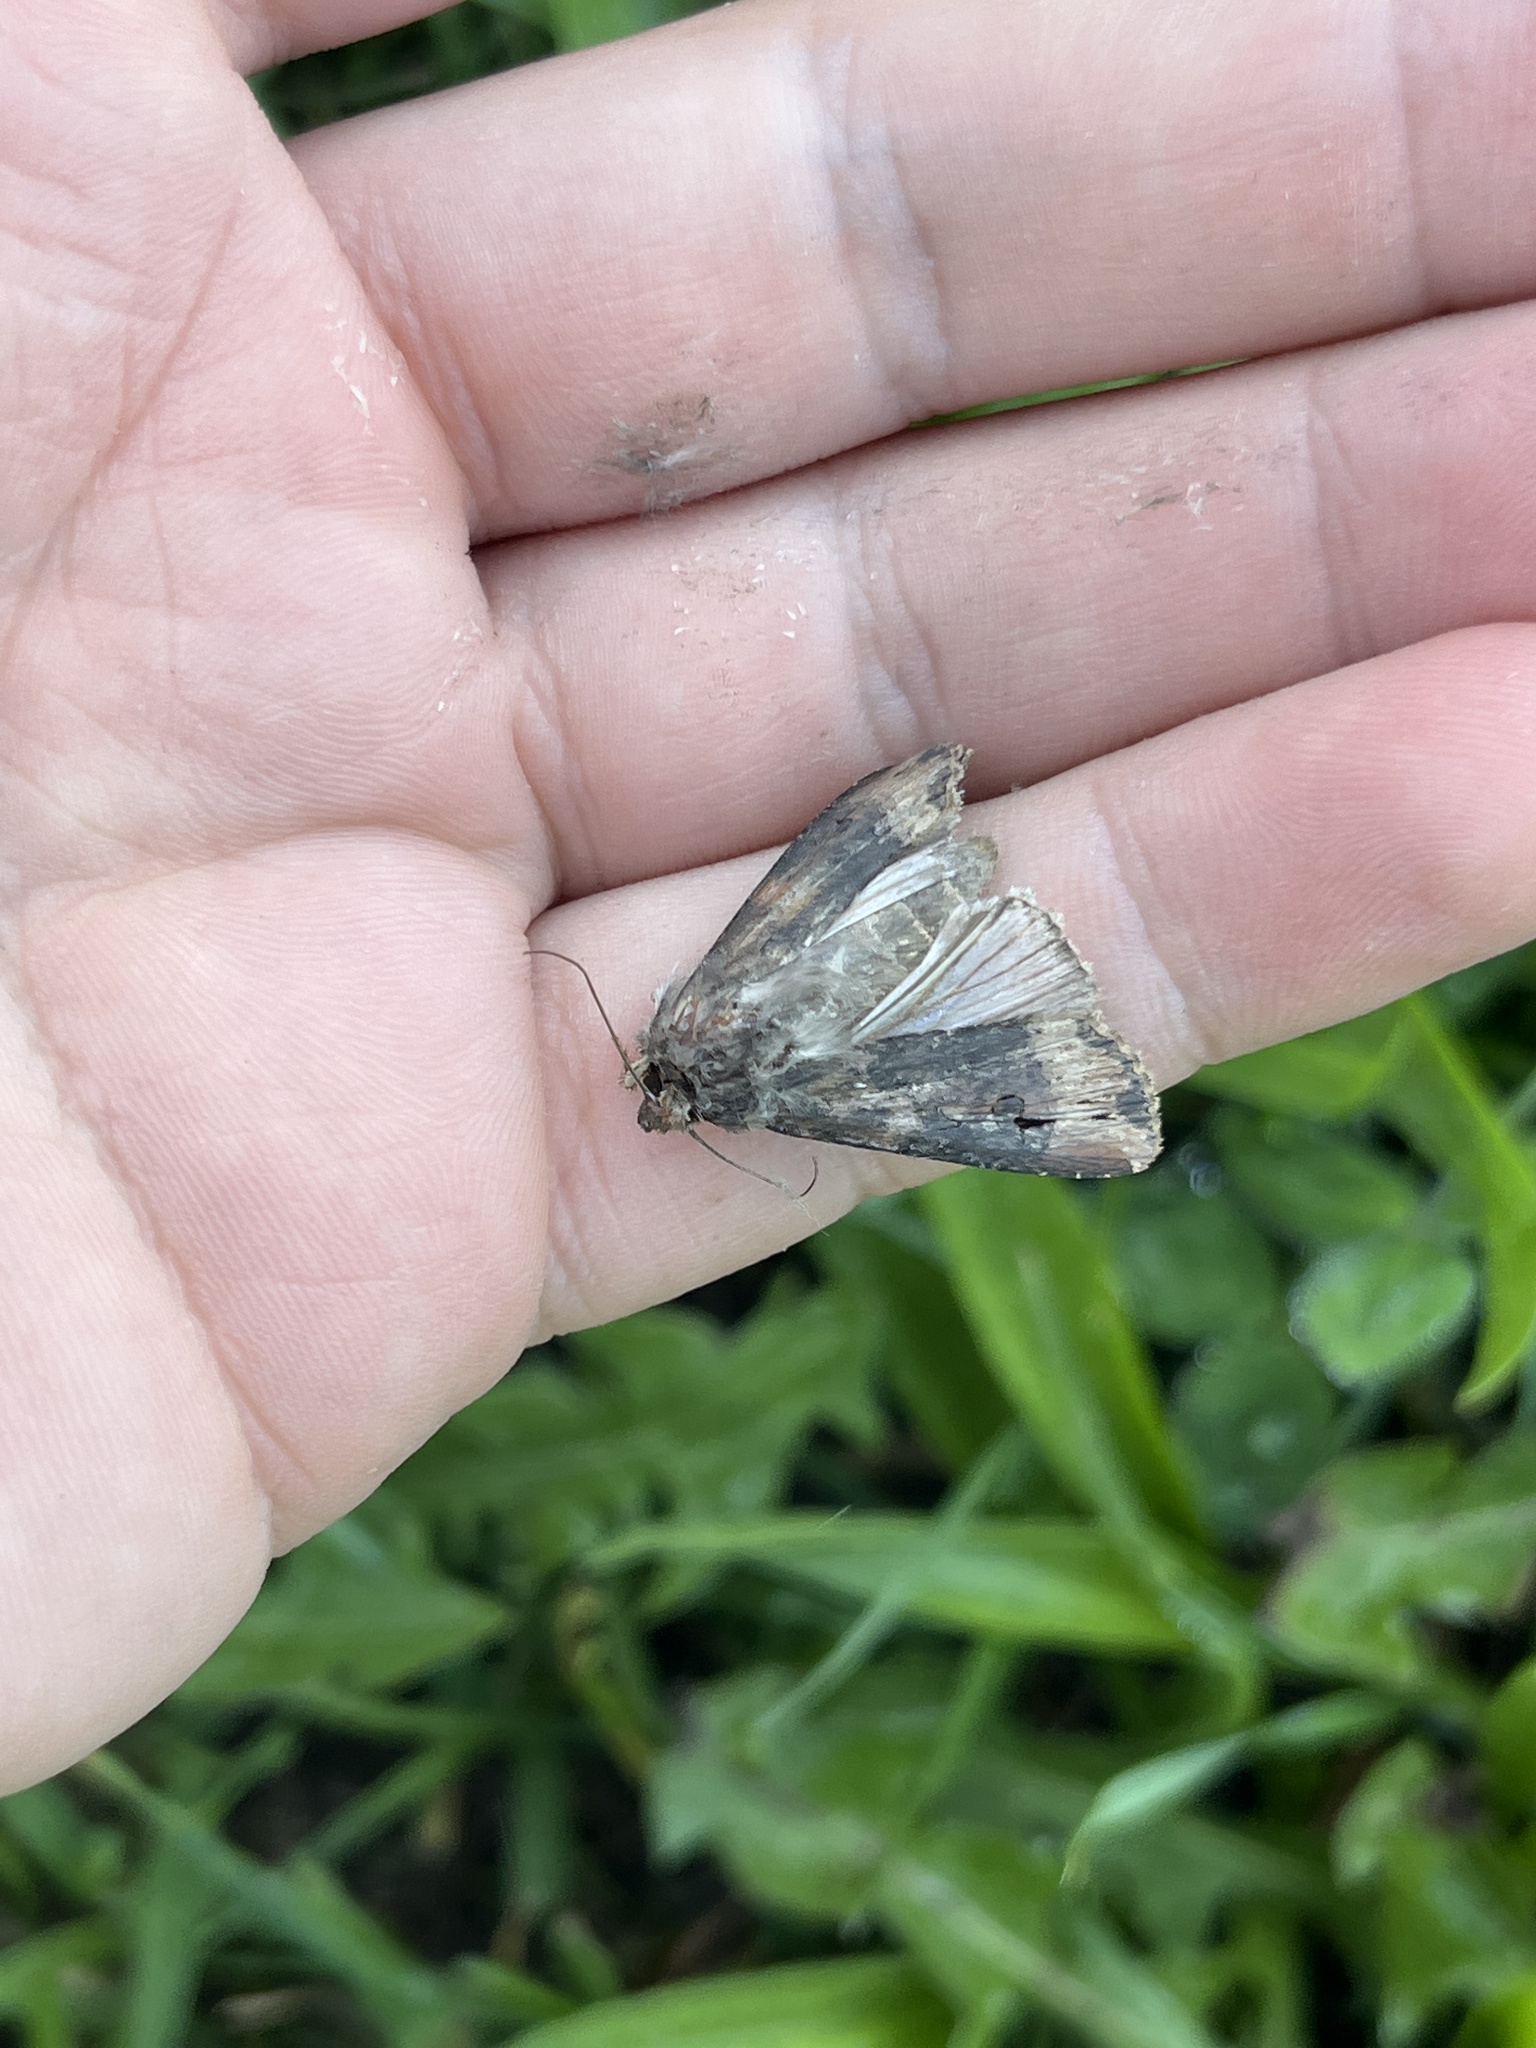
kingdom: Animalia
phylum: Arthropoda
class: Insecta
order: Lepidoptera
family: Noctuidae
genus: Agrotis
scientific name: Agrotis ipsilon
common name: Dark sword-grass
